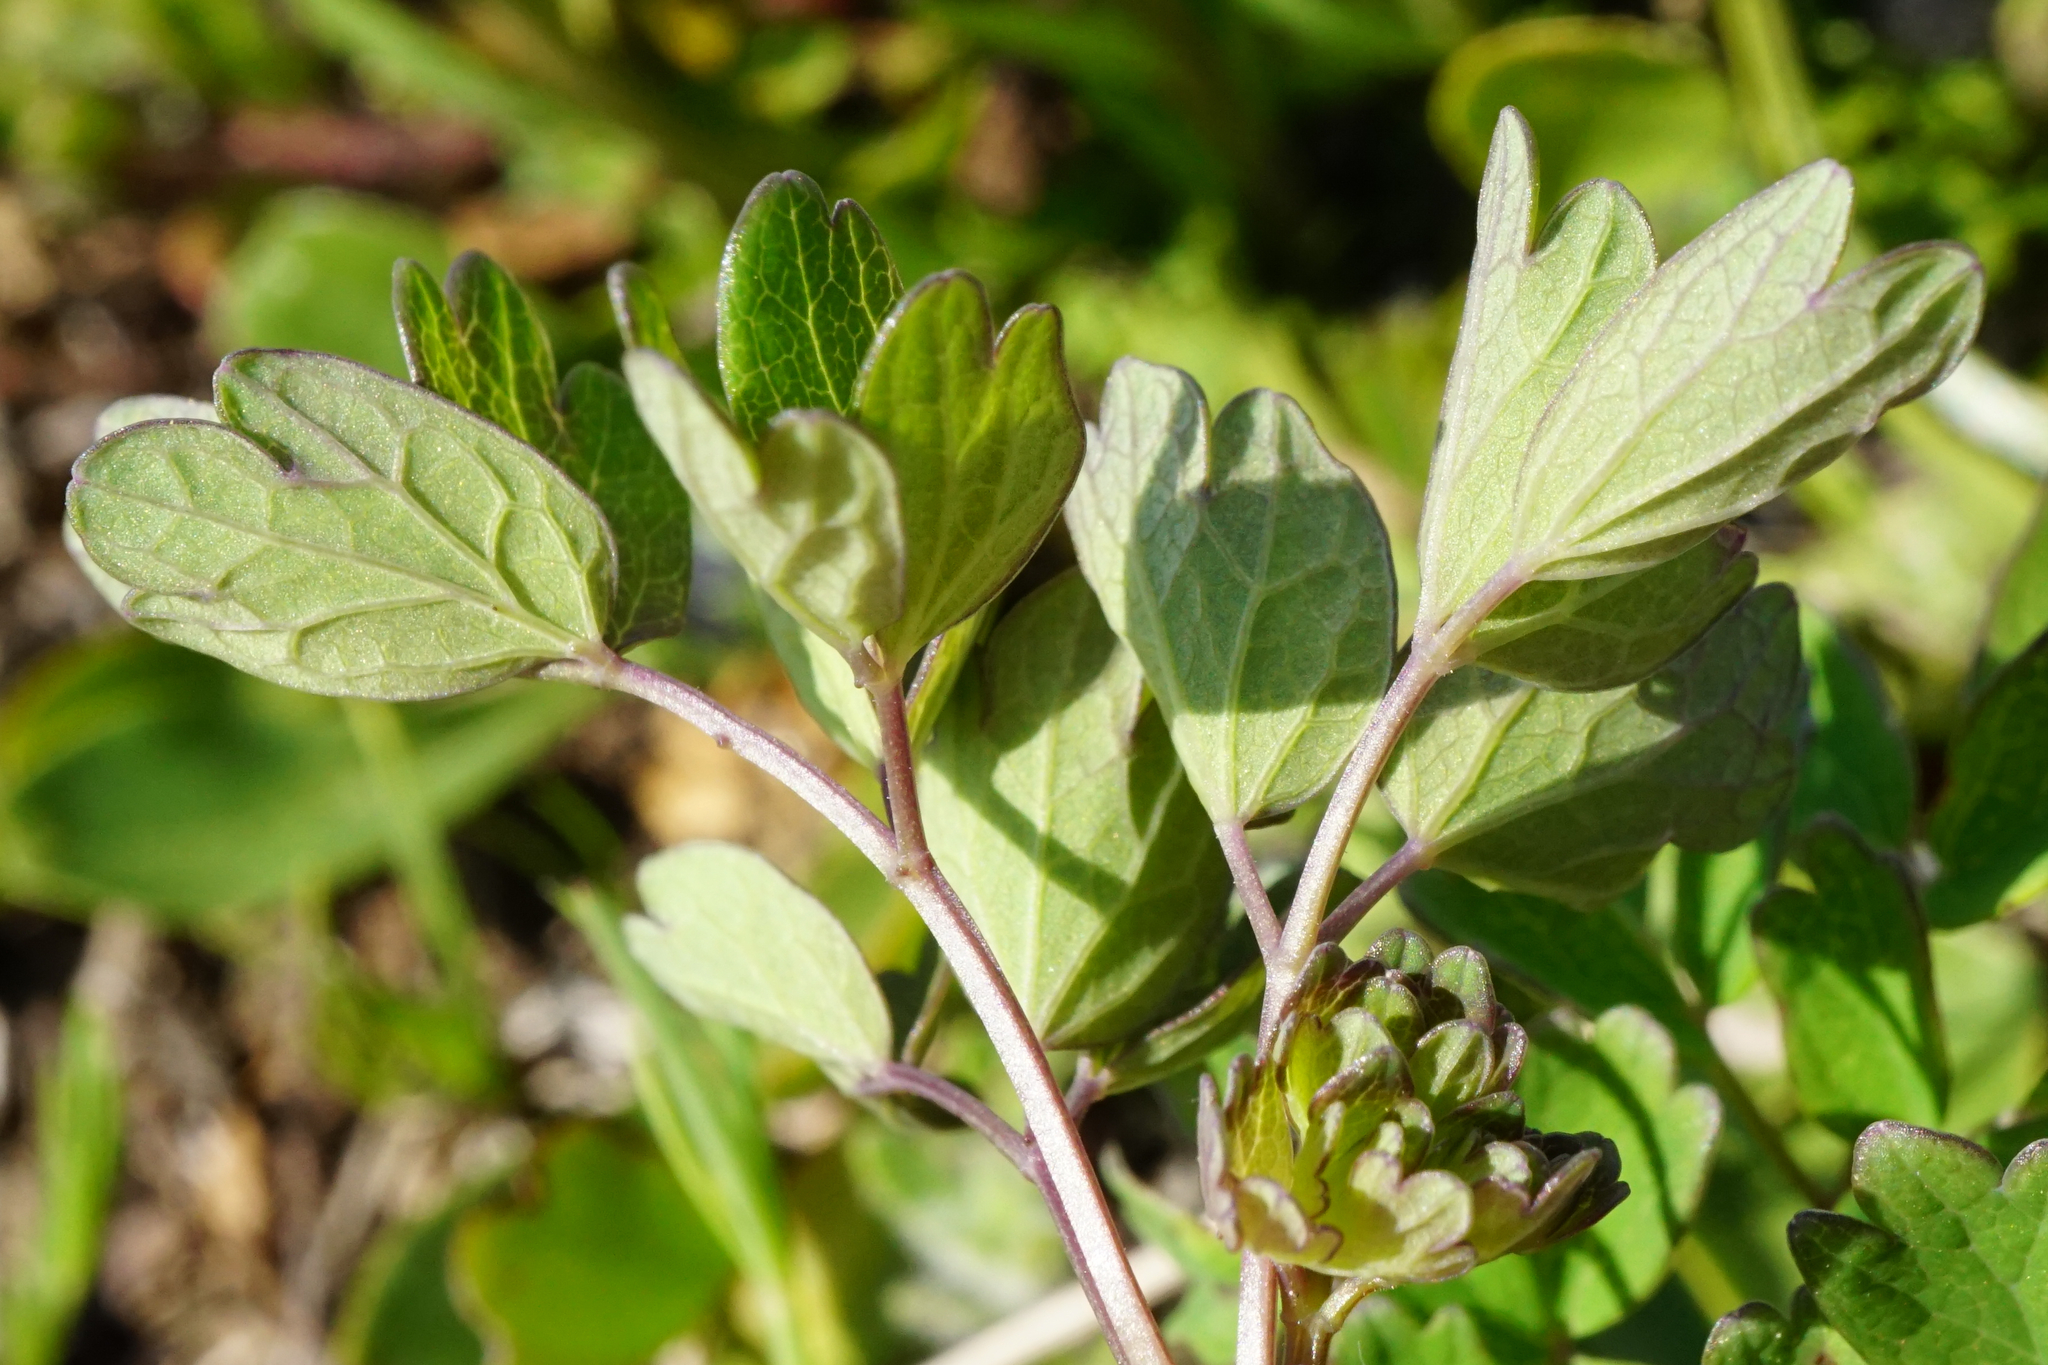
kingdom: Plantae
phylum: Tracheophyta
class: Magnoliopsida
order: Ranunculales
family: Ranunculaceae
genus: Thalictrum
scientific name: Thalictrum minus
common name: Lesser meadow-rue
